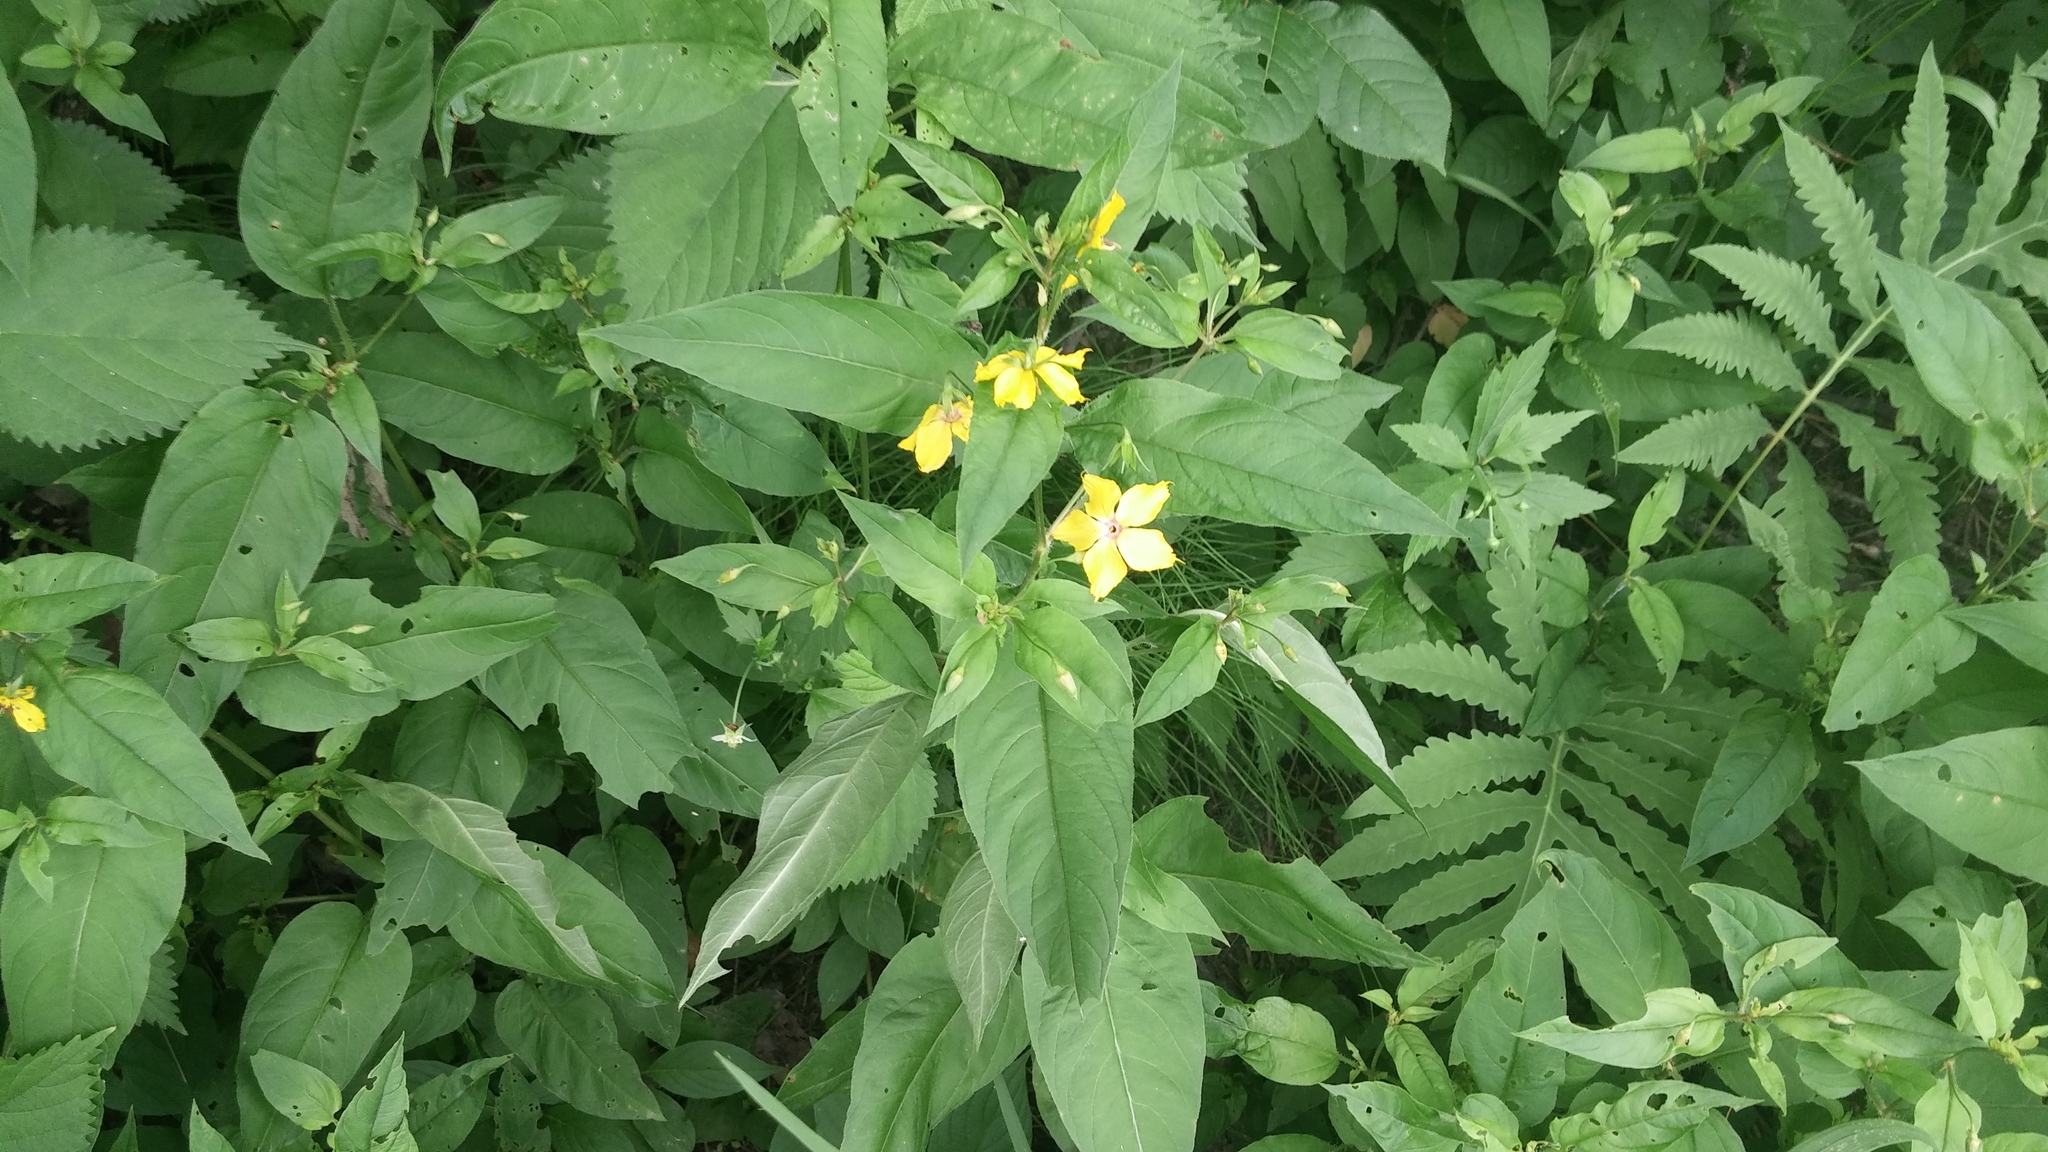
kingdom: Plantae
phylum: Tracheophyta
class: Magnoliopsida
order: Ericales
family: Primulaceae
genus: Lysimachia
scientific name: Lysimachia ciliata
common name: Fringed loosestrife
